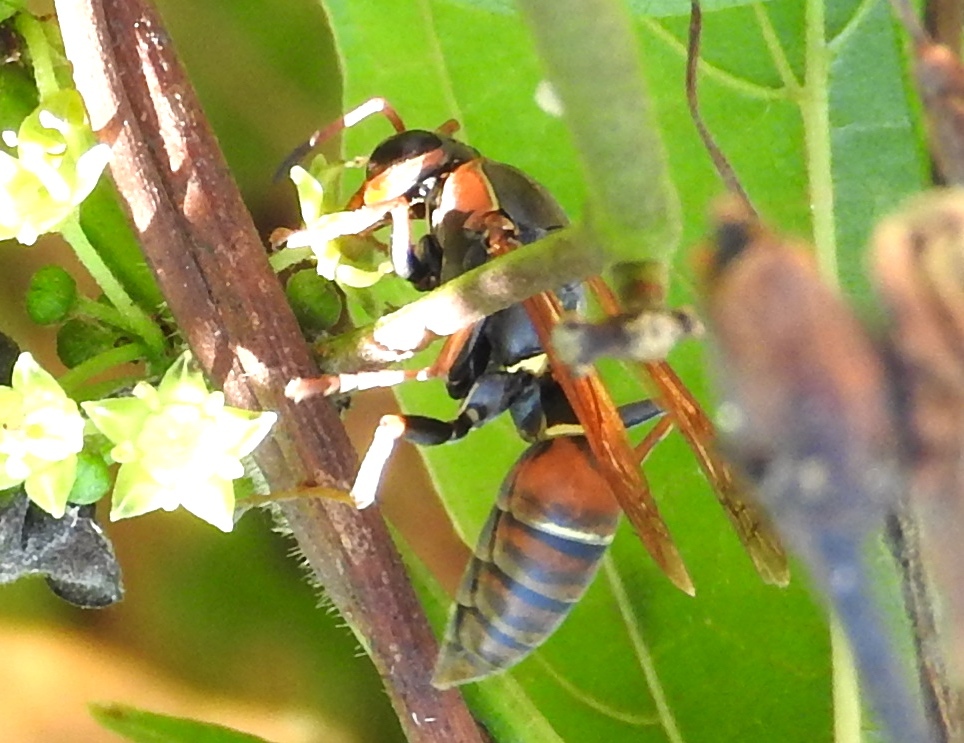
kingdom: Animalia
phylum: Arthropoda
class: Insecta
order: Hymenoptera
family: Eumenidae
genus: Polistes
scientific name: Polistes pacificus
